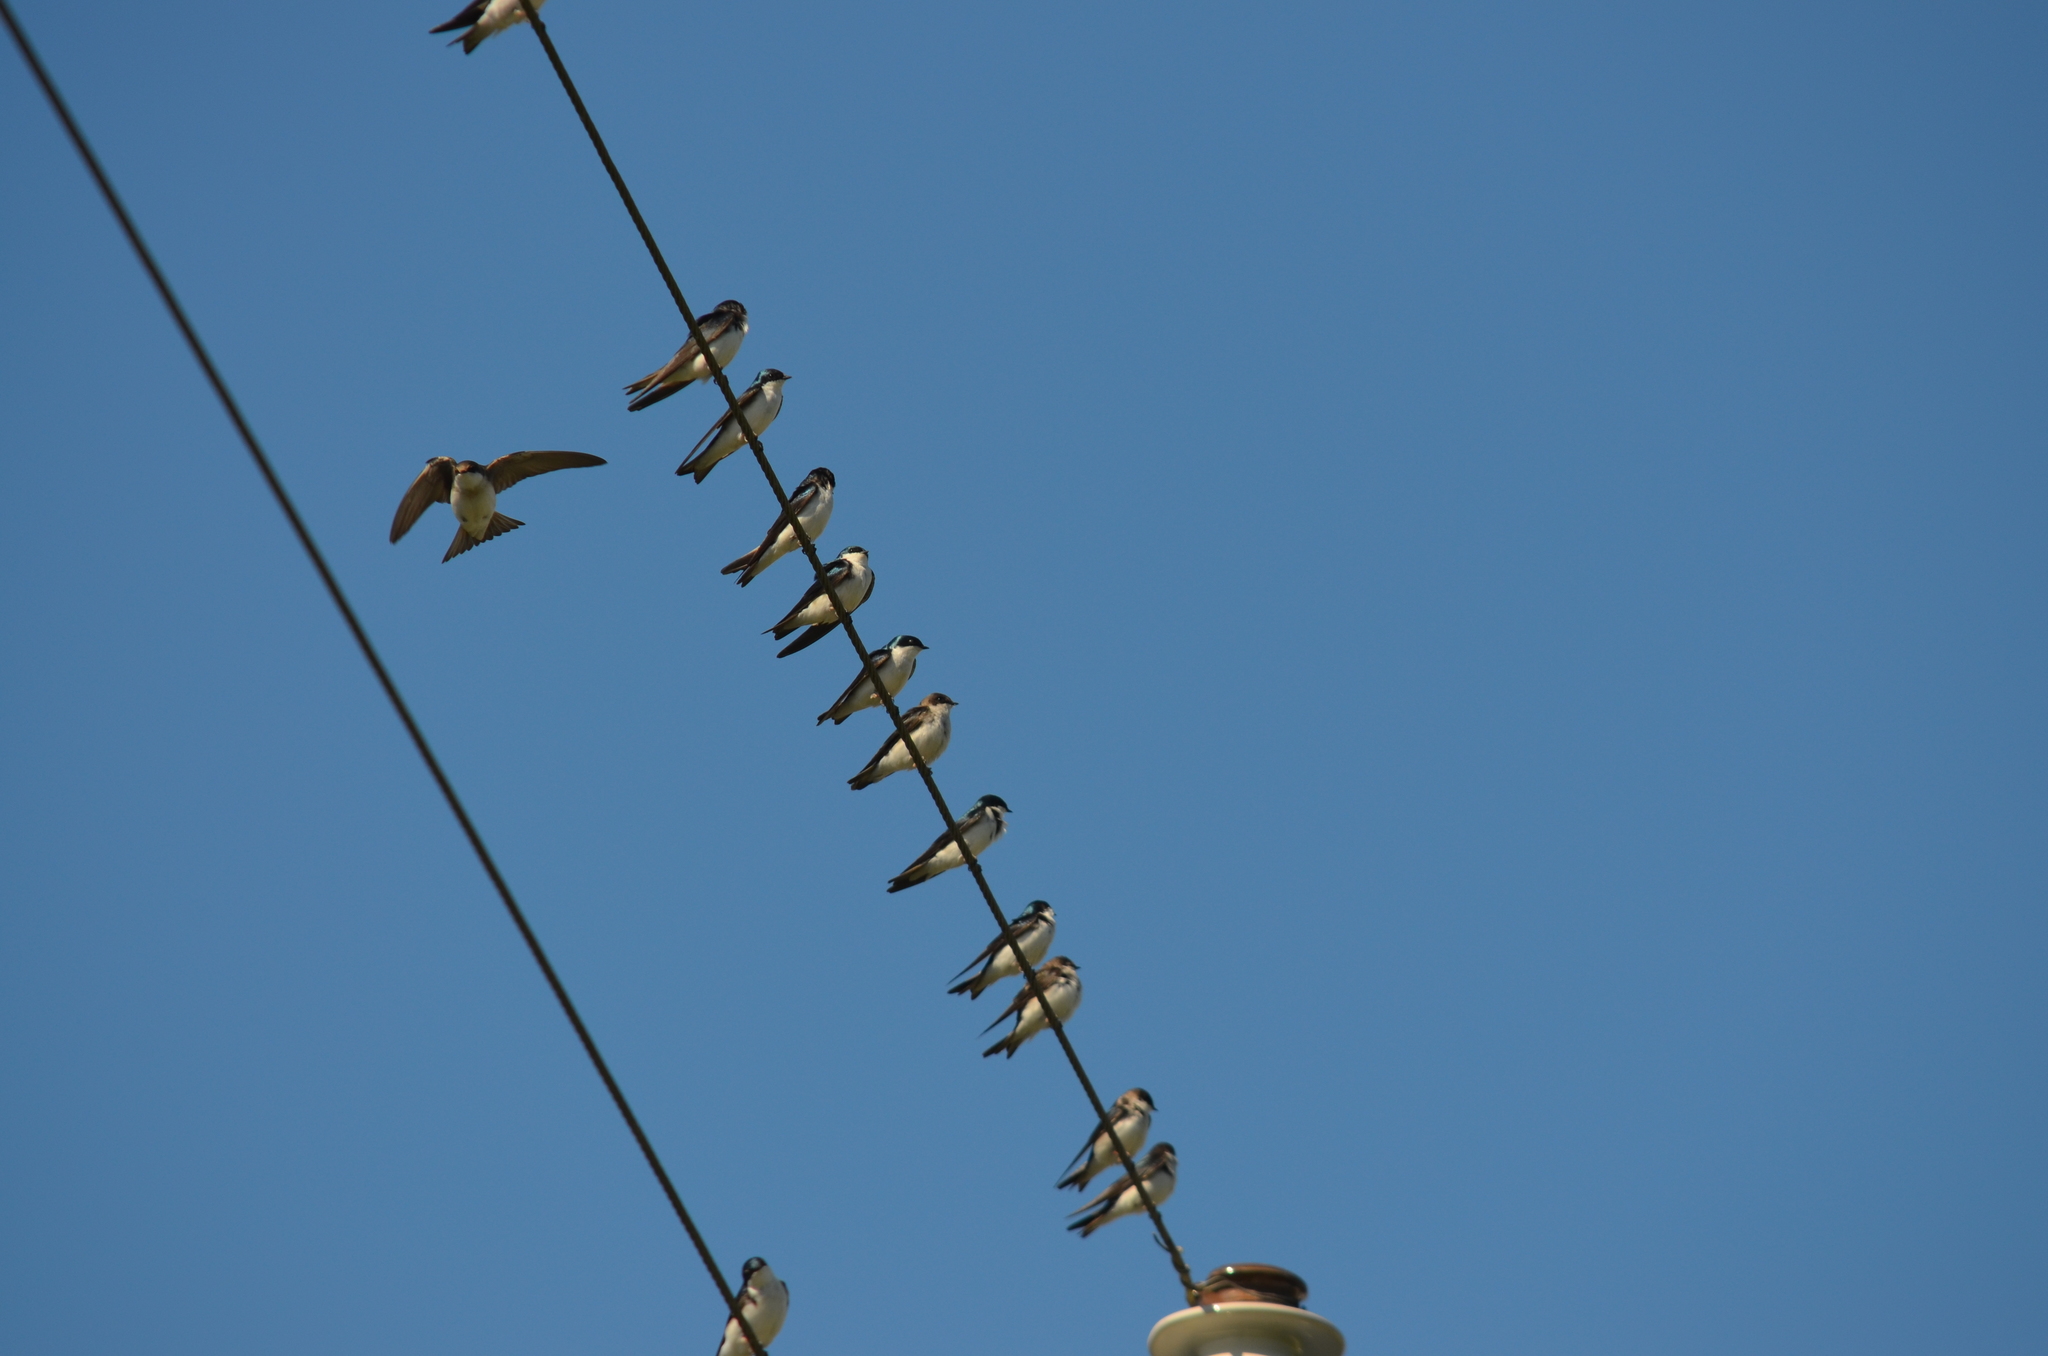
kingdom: Animalia
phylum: Chordata
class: Aves
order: Passeriformes
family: Hirundinidae
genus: Tachycineta
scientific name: Tachycineta bicolor
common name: Tree swallow
